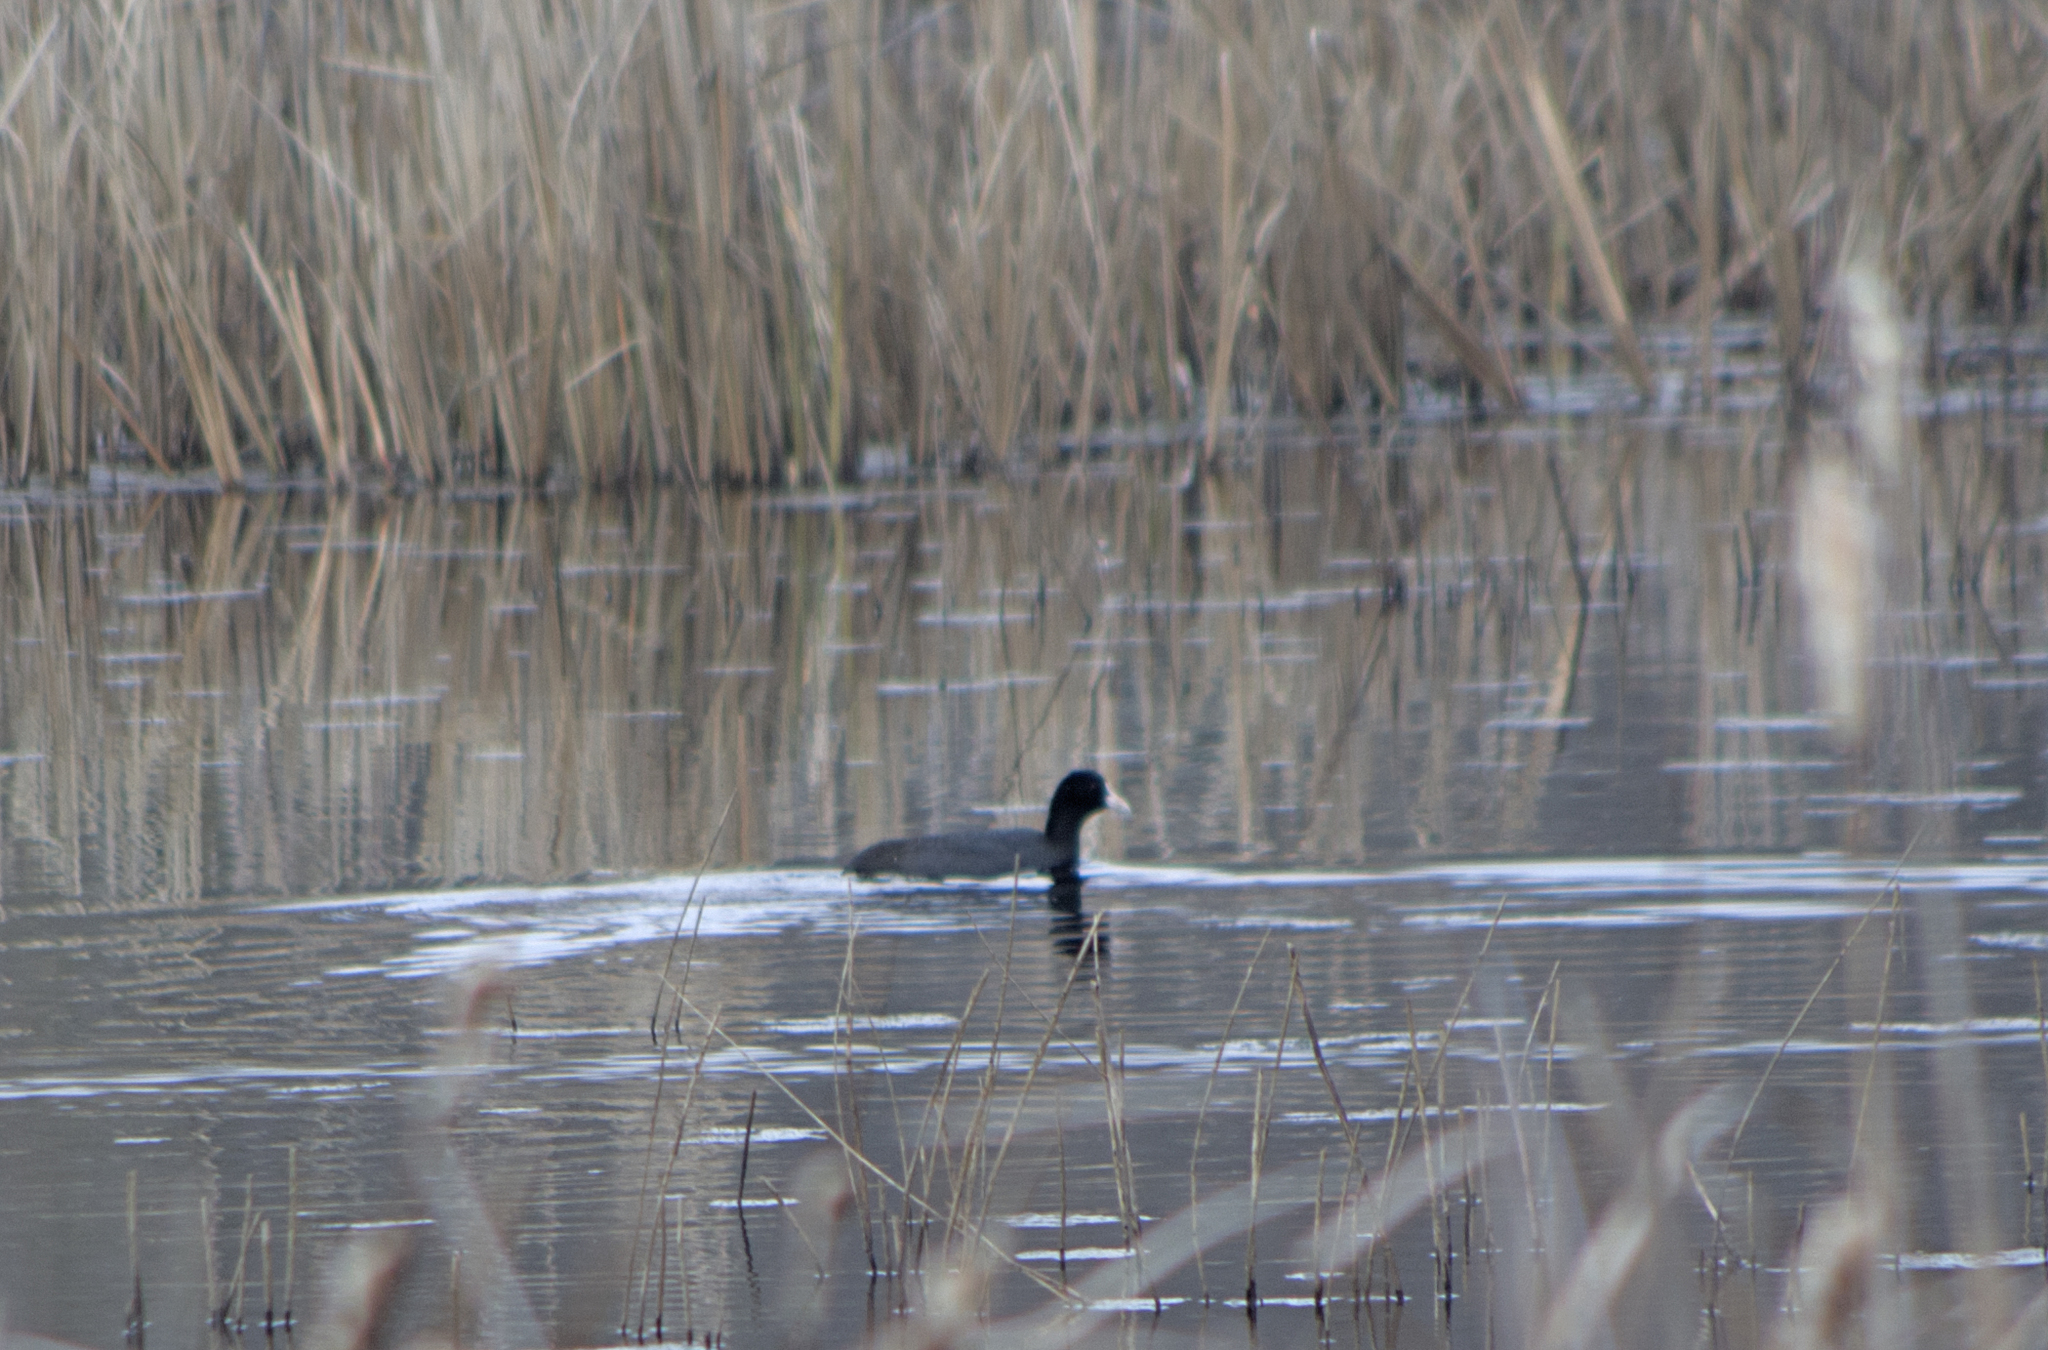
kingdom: Animalia
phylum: Chordata
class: Aves
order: Gruiformes
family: Rallidae
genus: Fulica
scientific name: Fulica atra
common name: Eurasian coot
